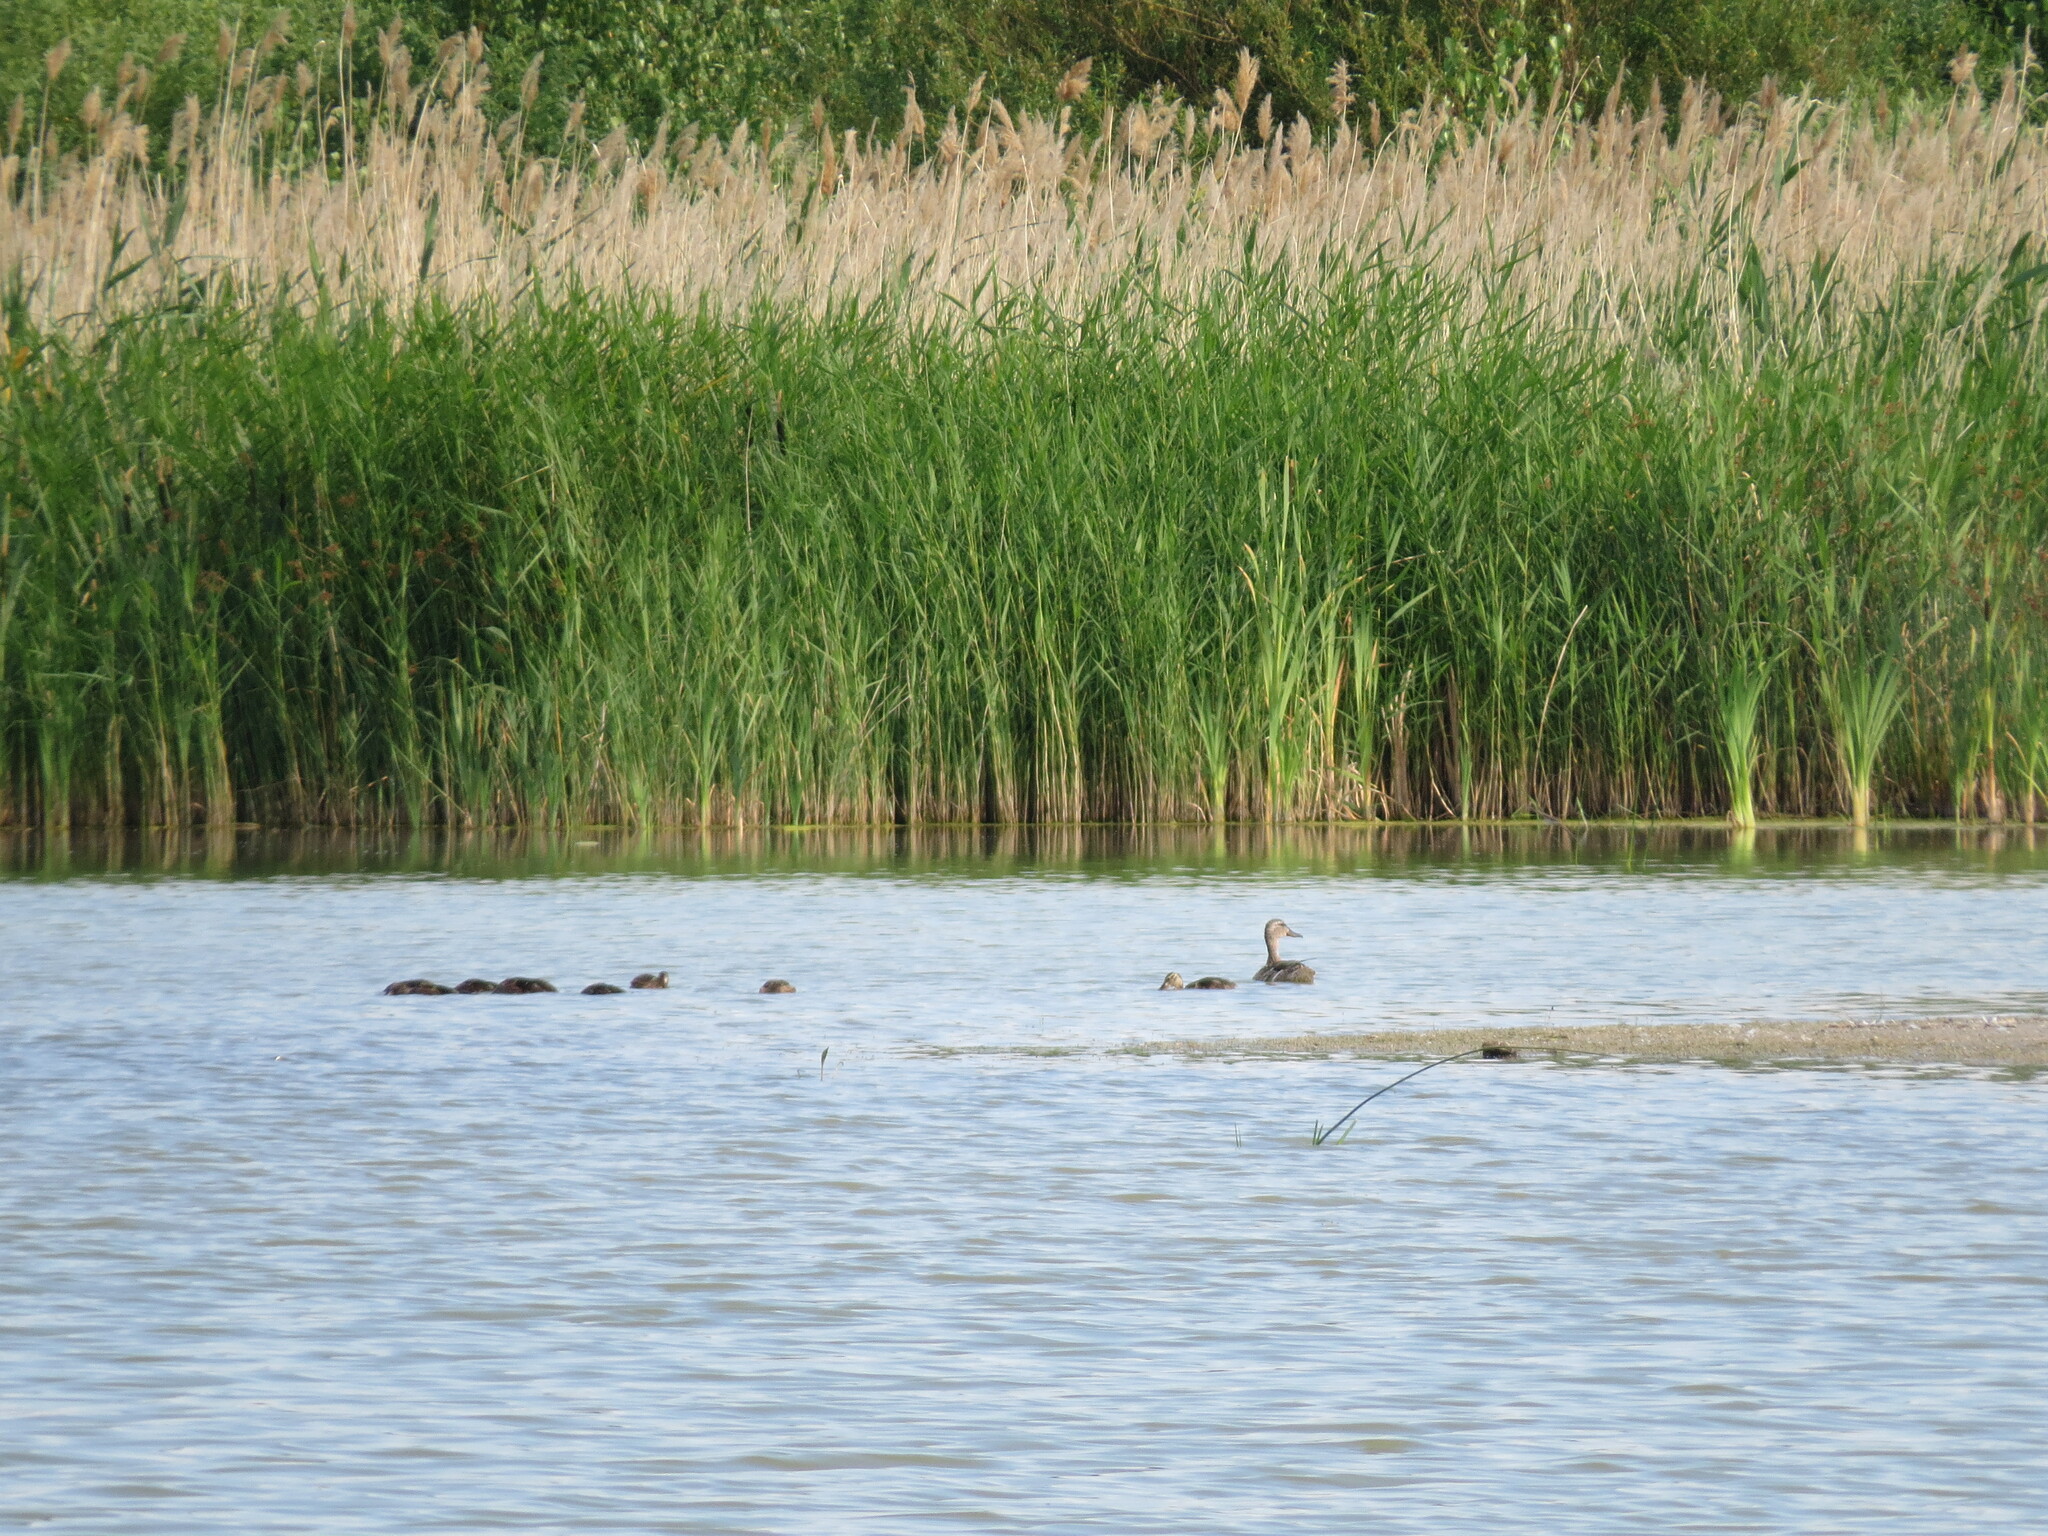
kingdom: Animalia
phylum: Chordata
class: Aves
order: Anseriformes
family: Anatidae
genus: Mareca
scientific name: Mareca strepera
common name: Gadwall
